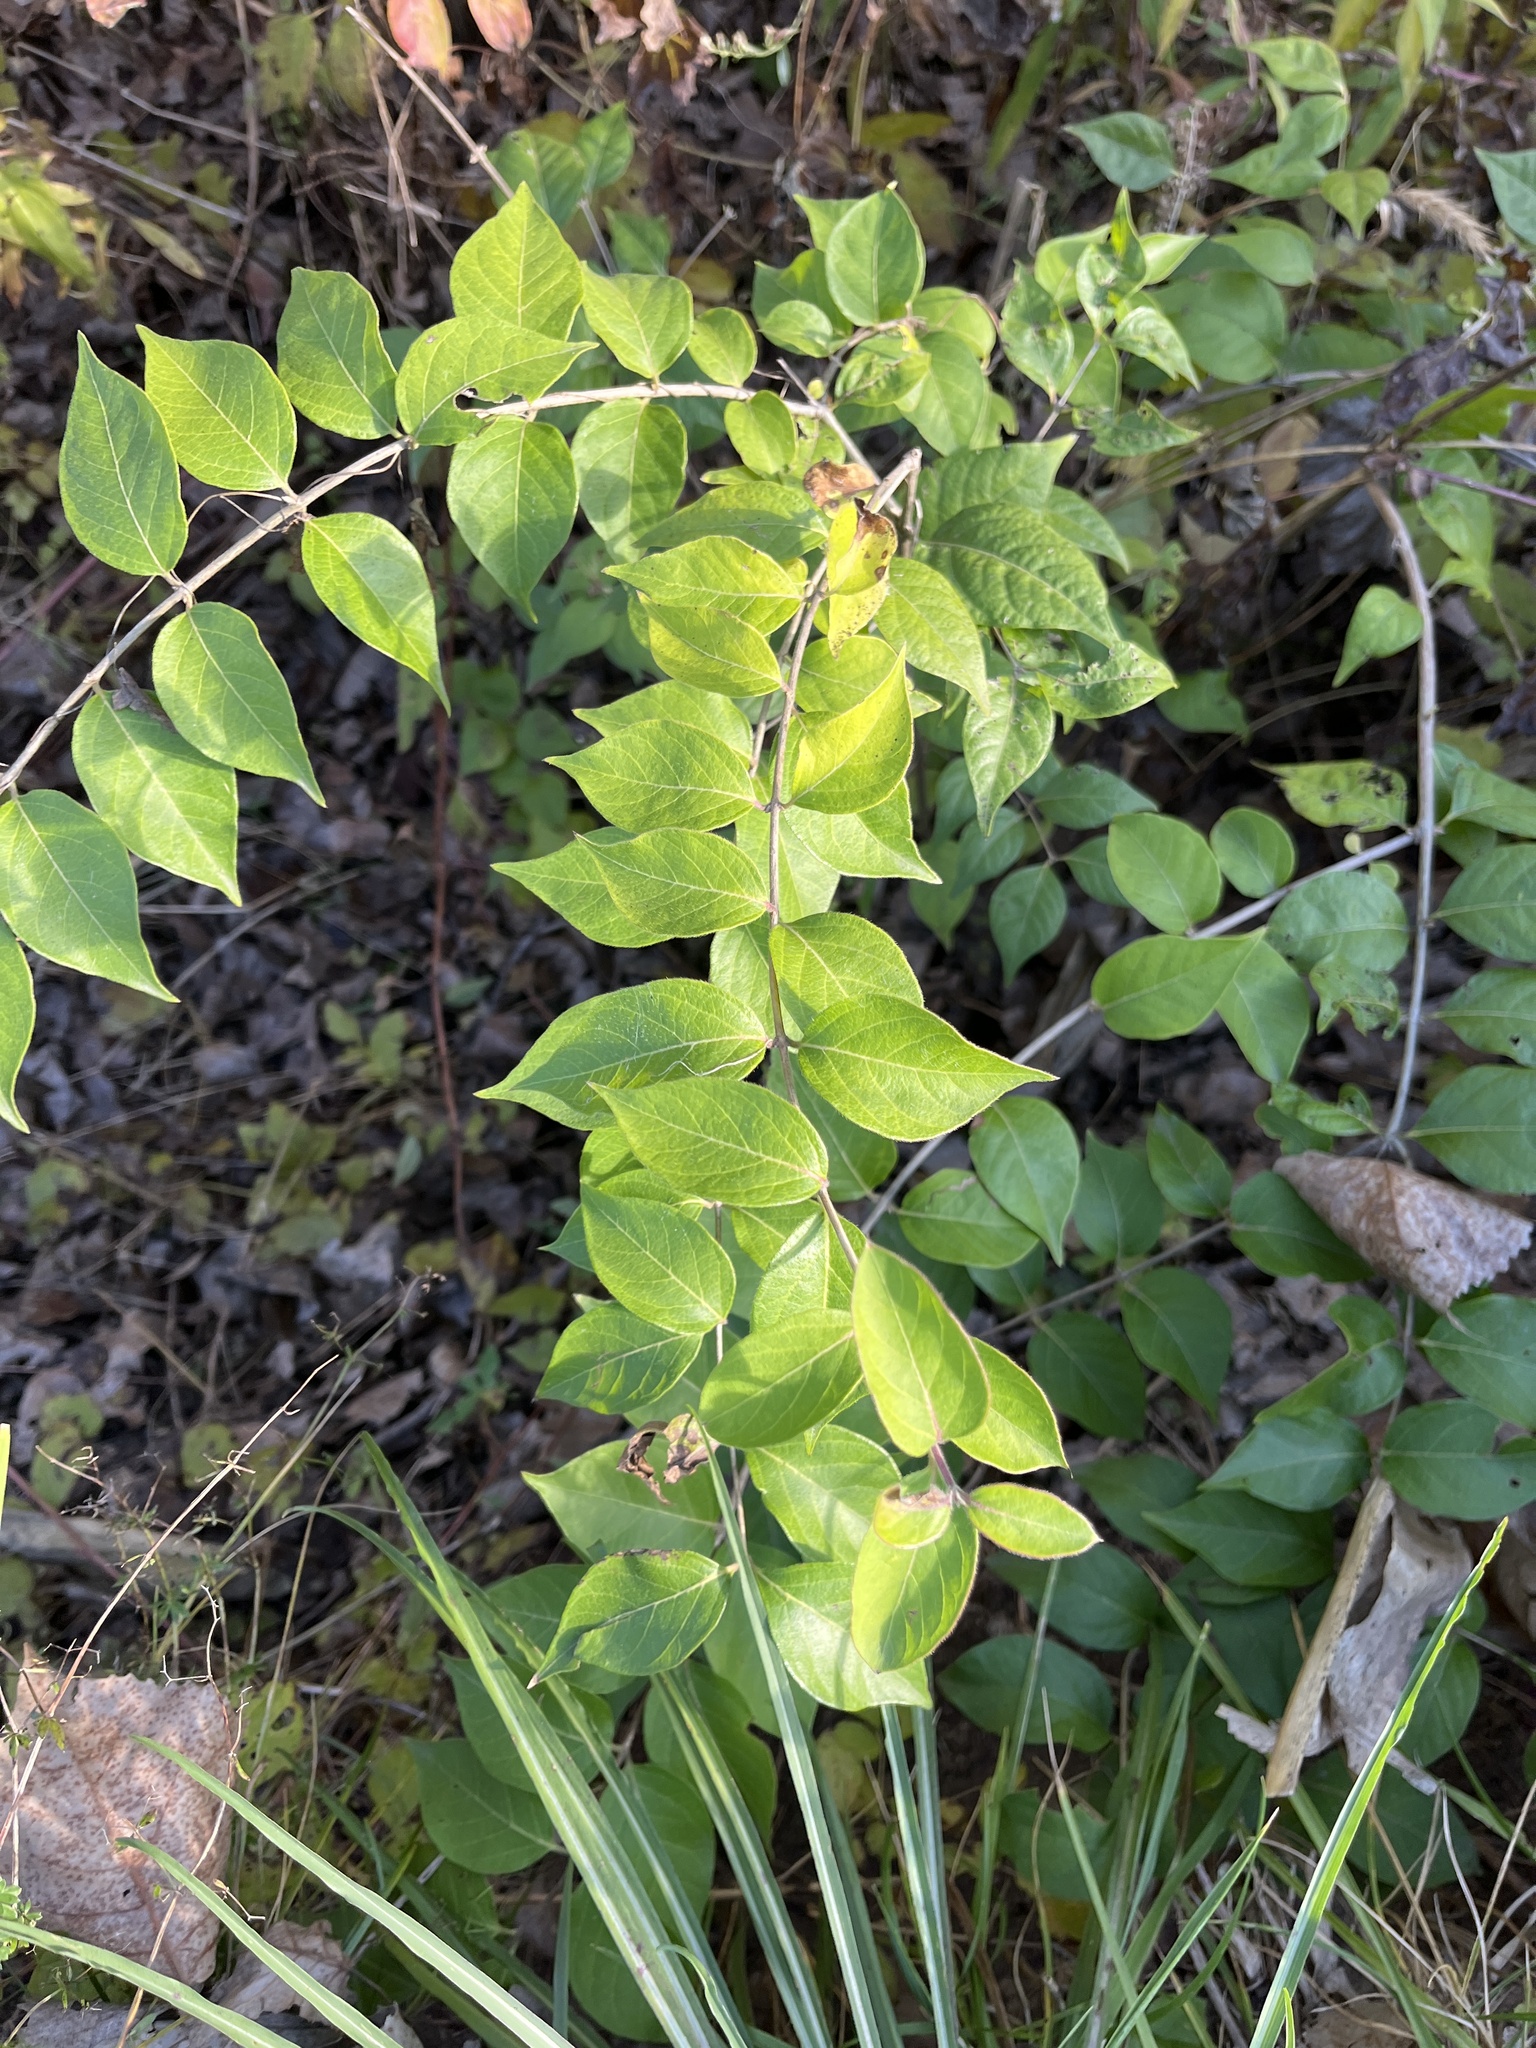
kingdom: Plantae
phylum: Tracheophyta
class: Magnoliopsida
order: Dipsacales
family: Caprifoliaceae
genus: Lonicera
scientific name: Lonicera maackii
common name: Amur honeysuckle
